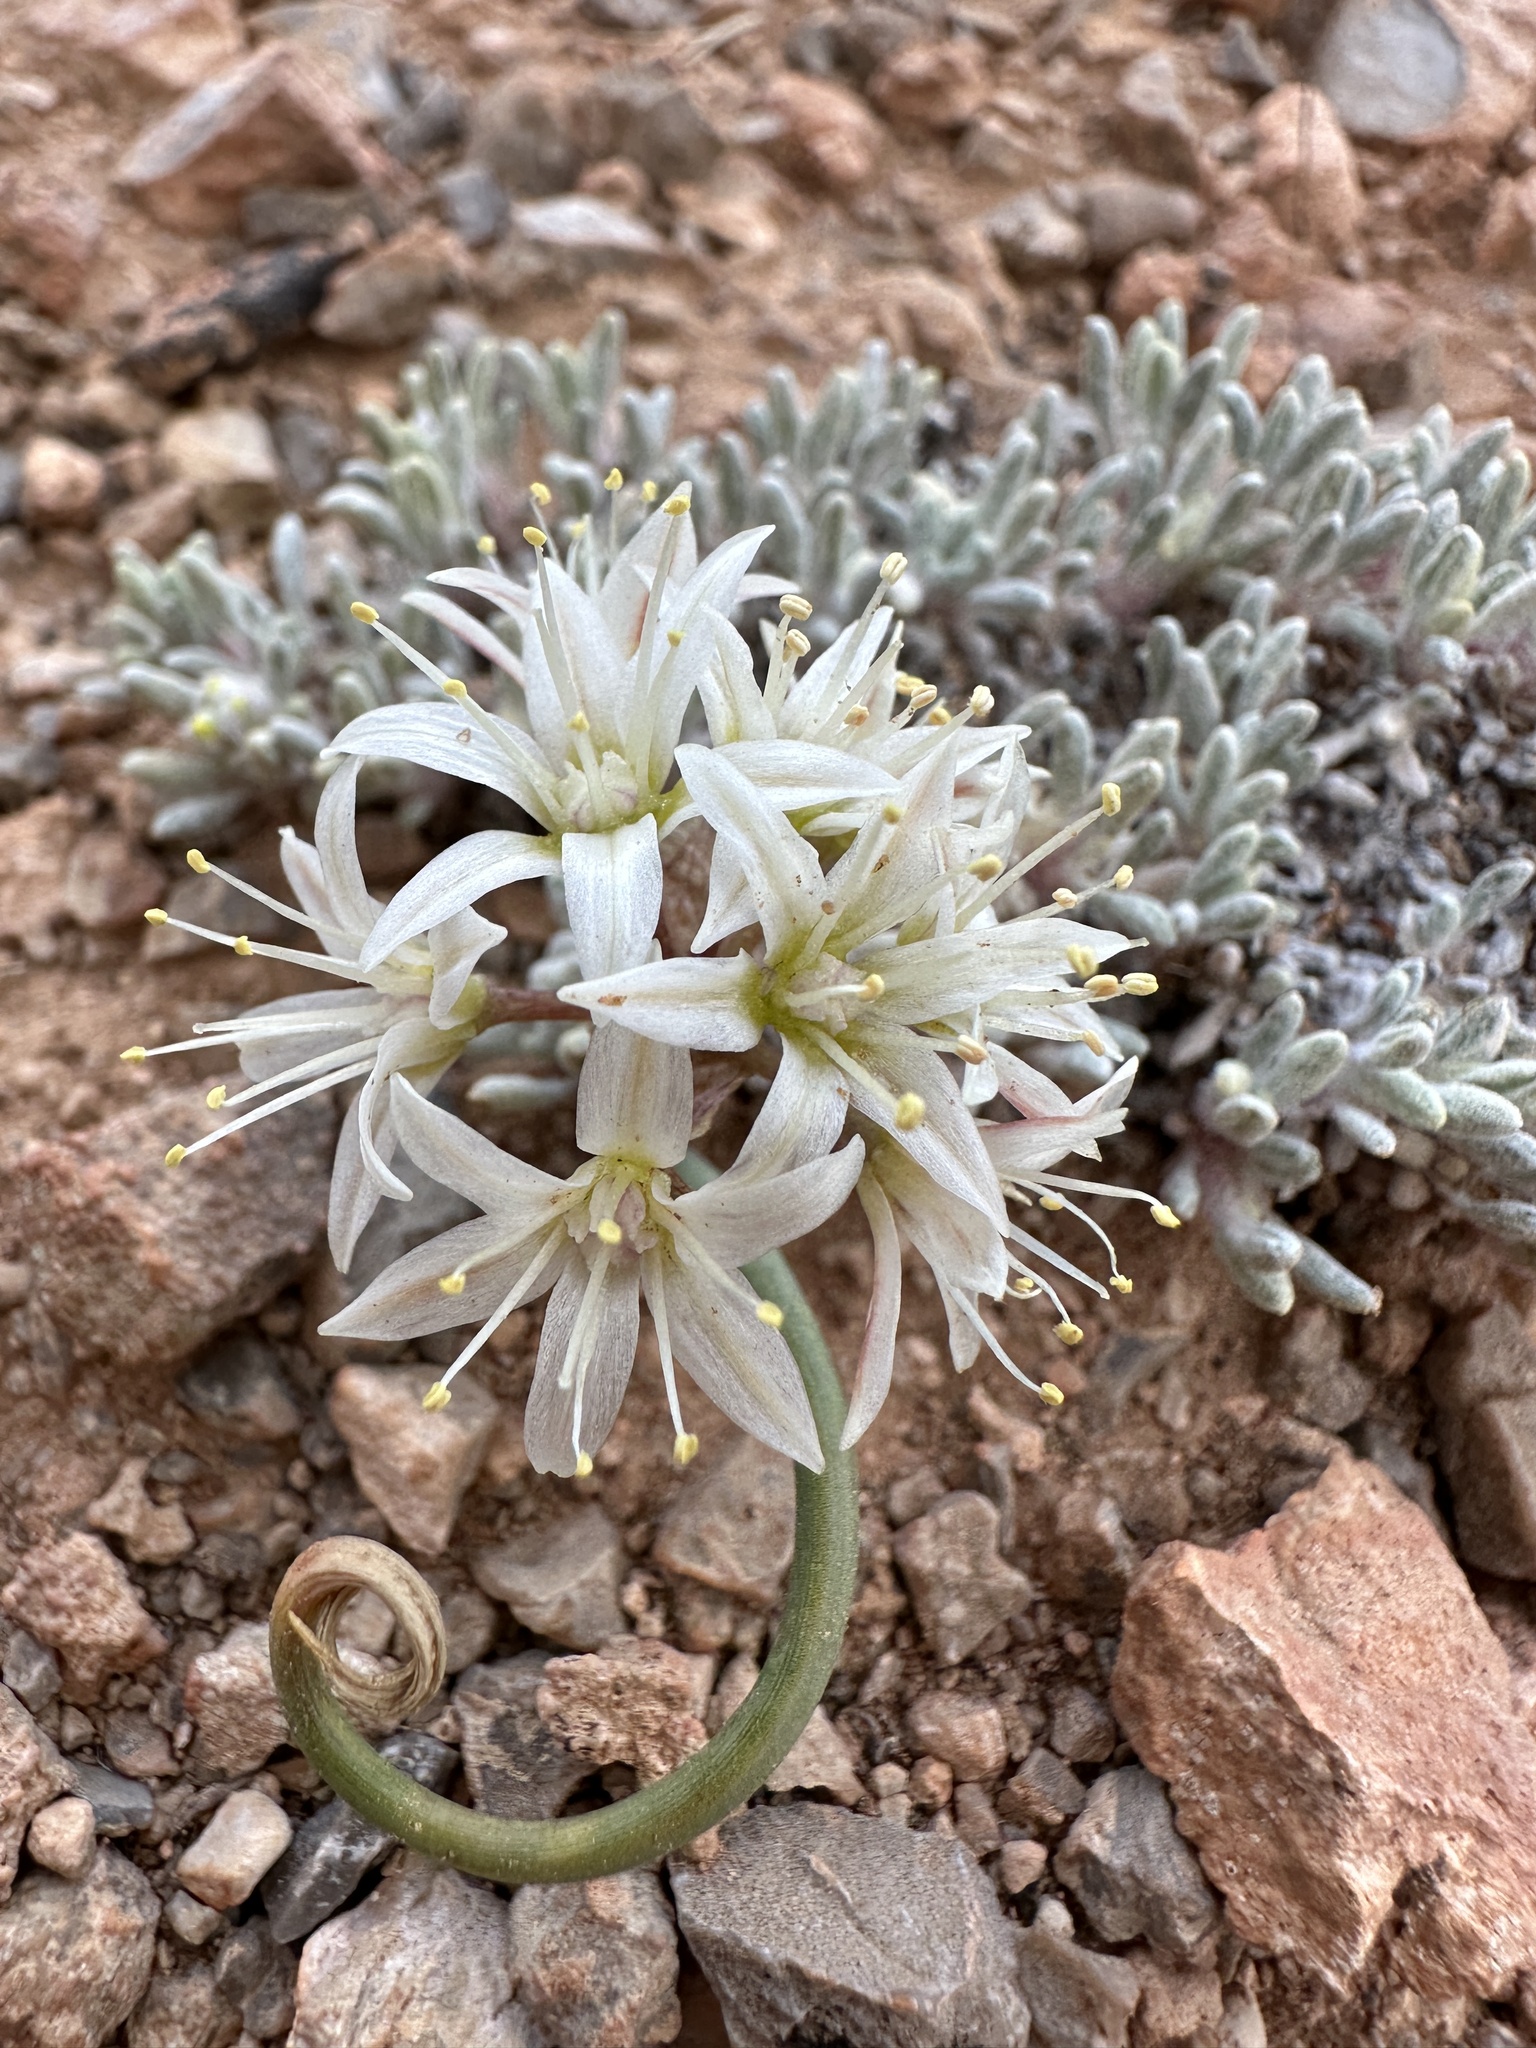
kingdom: Plantae
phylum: Tracheophyta
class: Liliopsida
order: Asparagales
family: Amaryllidaceae
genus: Allium
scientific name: Allium nevadense
